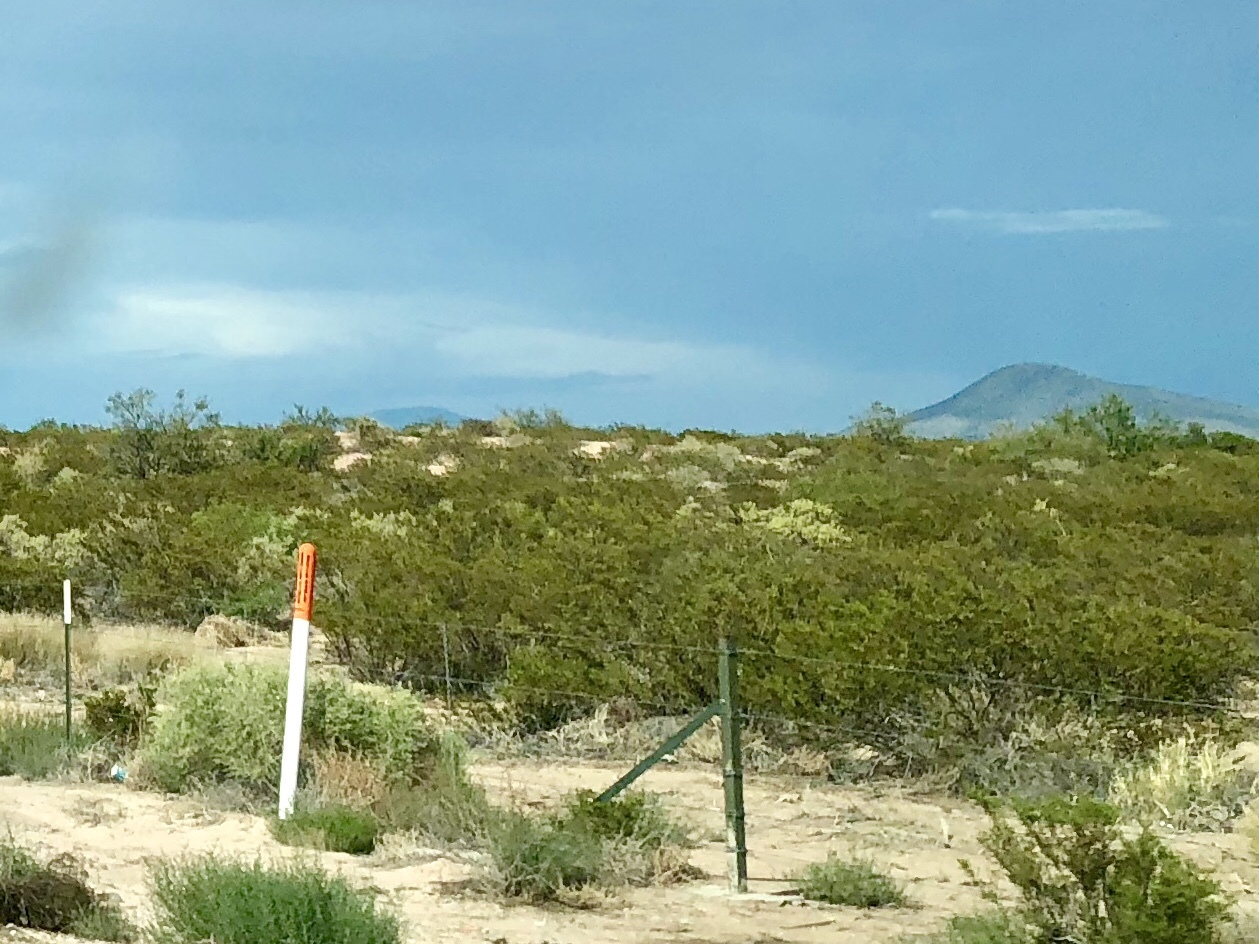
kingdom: Plantae
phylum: Tracheophyta
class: Magnoliopsida
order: Zygophyllales
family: Zygophyllaceae
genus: Larrea
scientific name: Larrea tridentata
